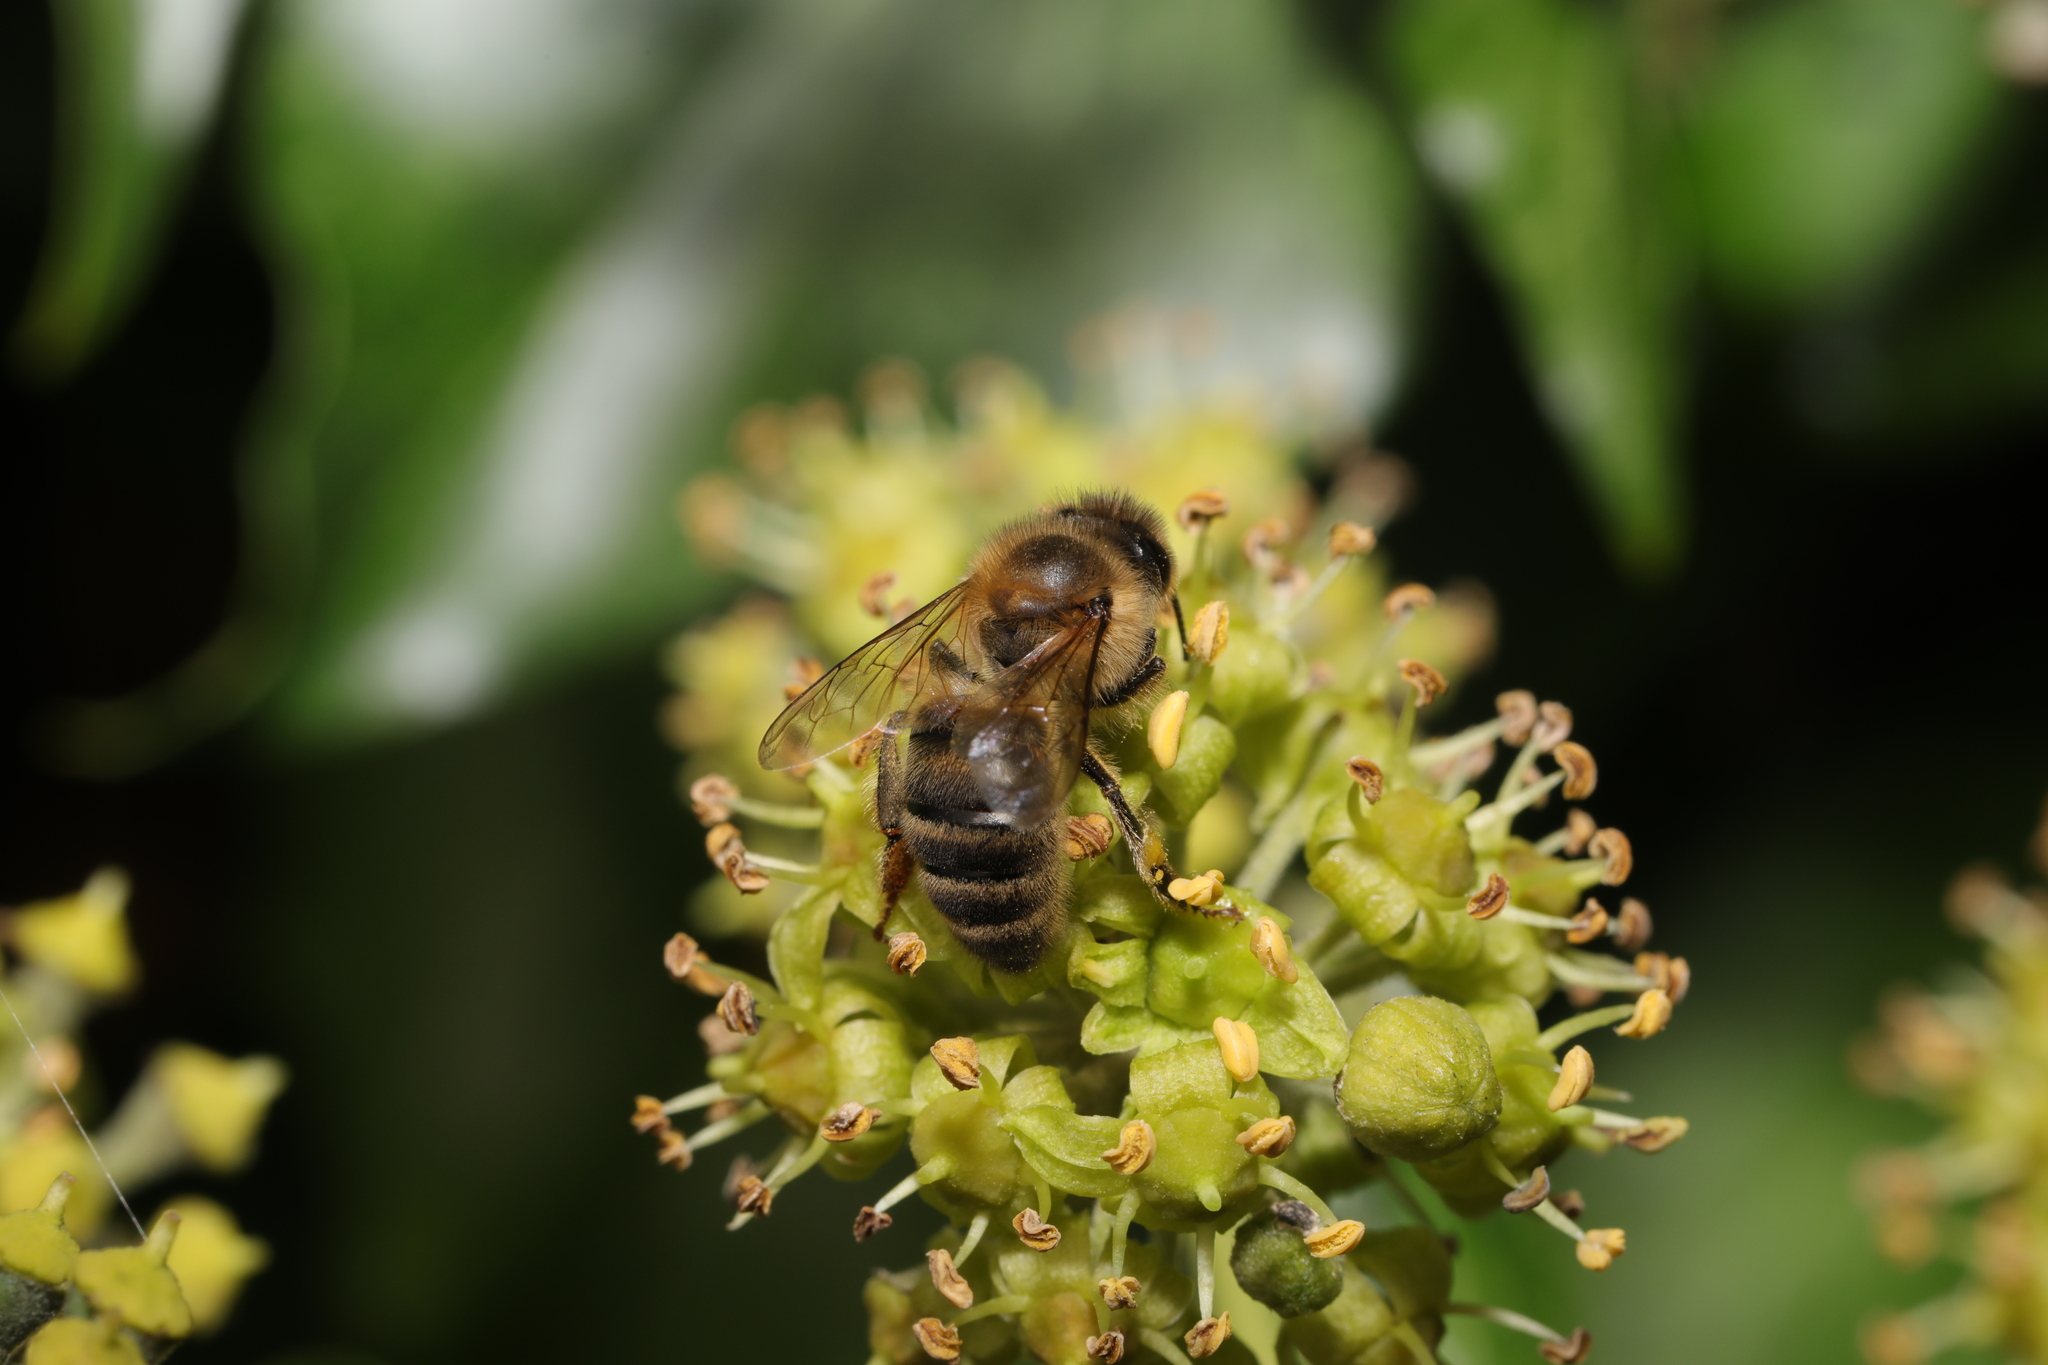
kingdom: Animalia
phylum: Arthropoda
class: Insecta
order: Hymenoptera
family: Apidae
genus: Apis
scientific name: Apis mellifera
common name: Honey bee
